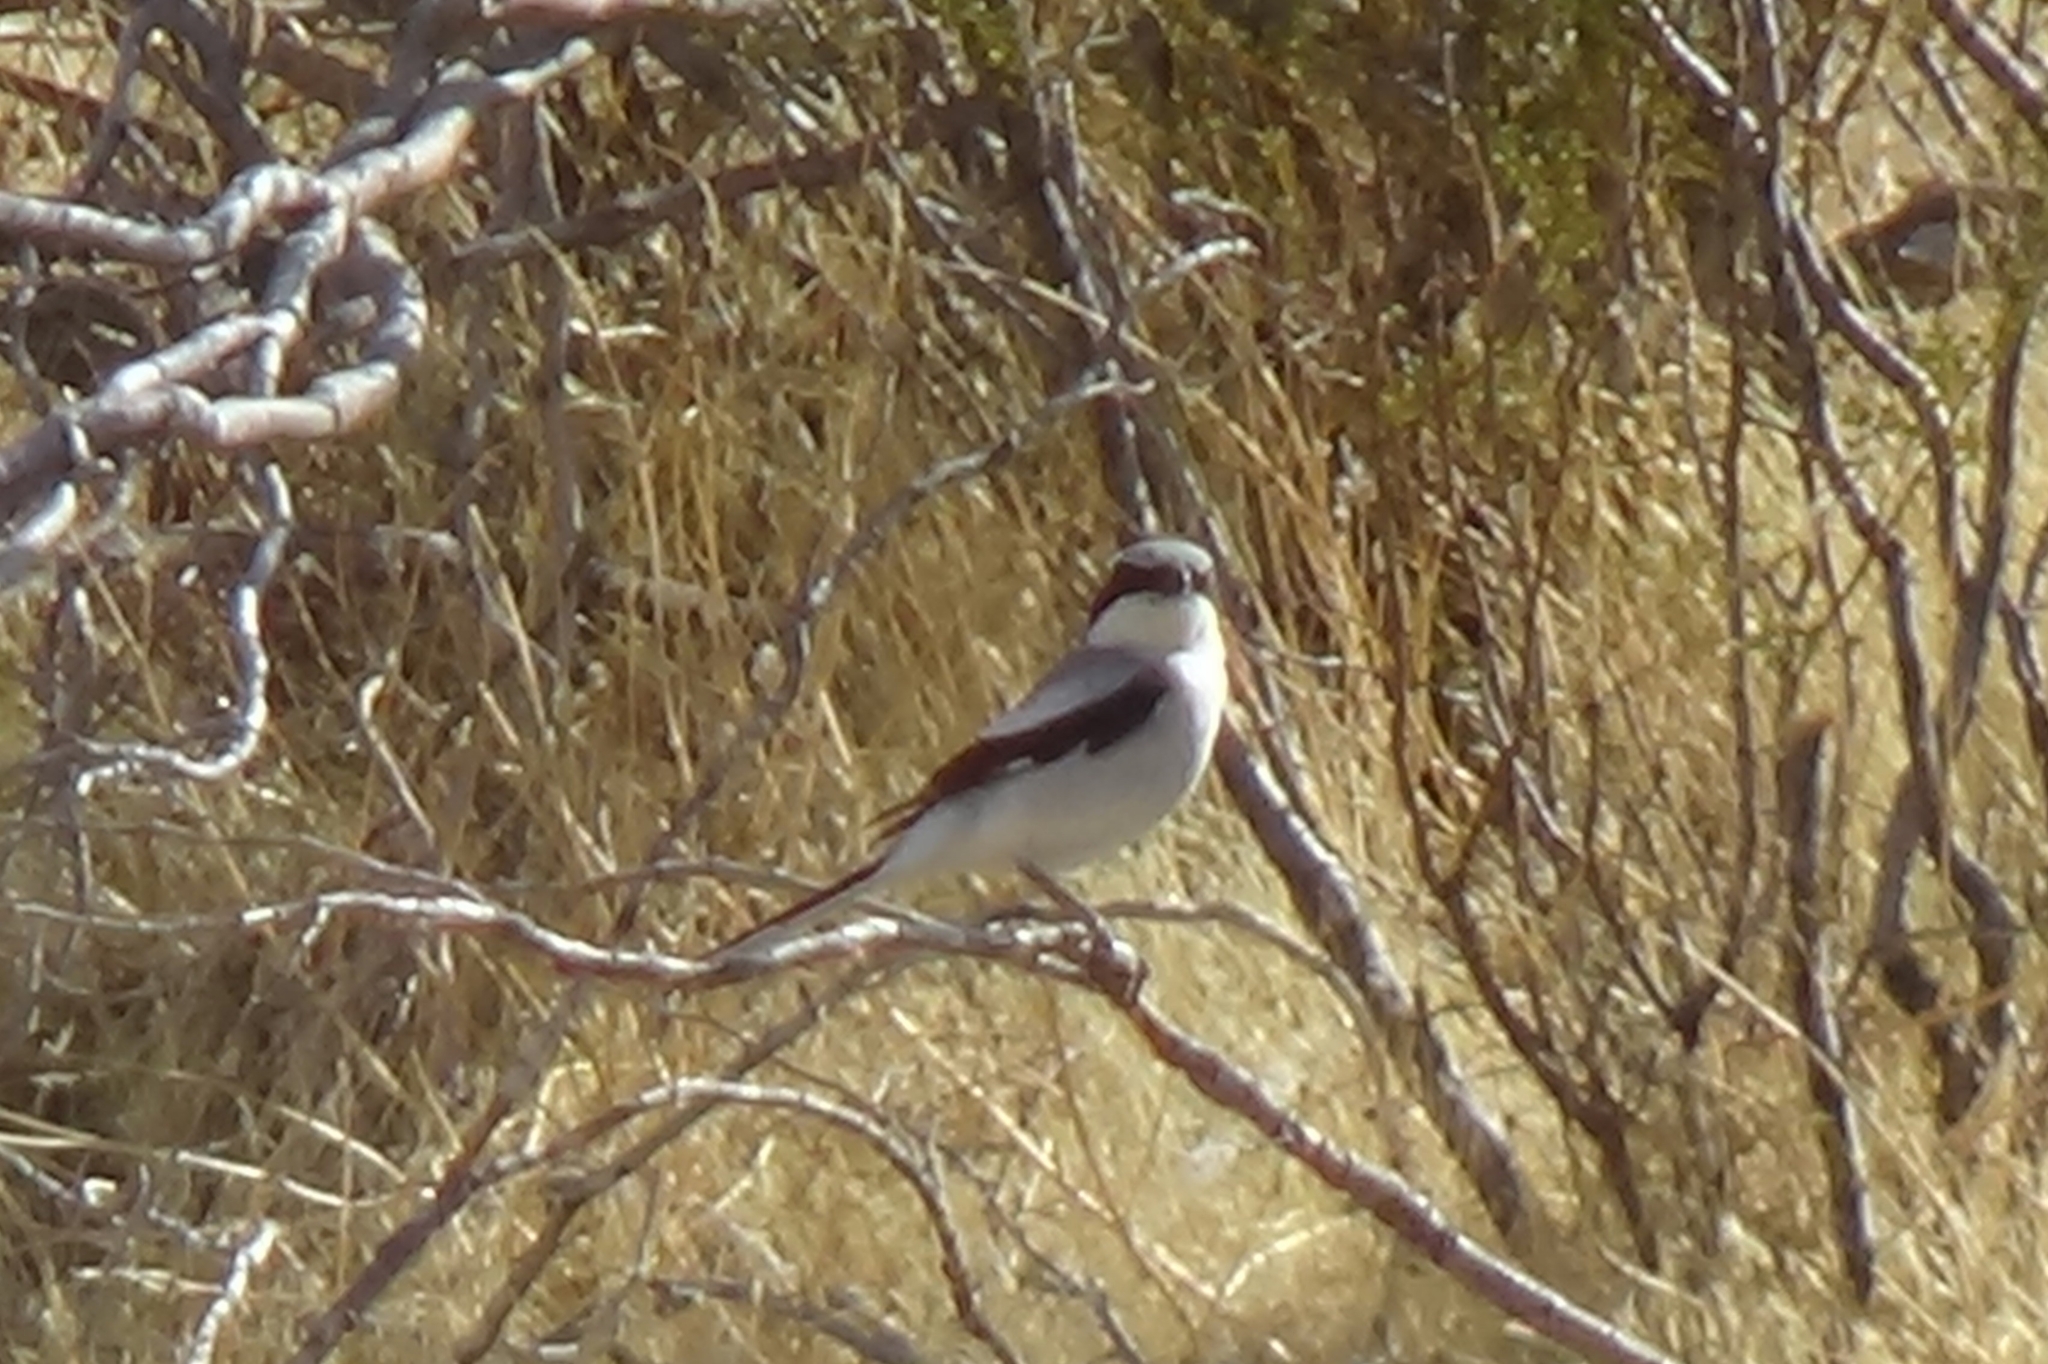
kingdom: Animalia
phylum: Chordata
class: Aves
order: Passeriformes
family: Laniidae
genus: Lanius
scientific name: Lanius ludovicianus
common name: Loggerhead shrike
